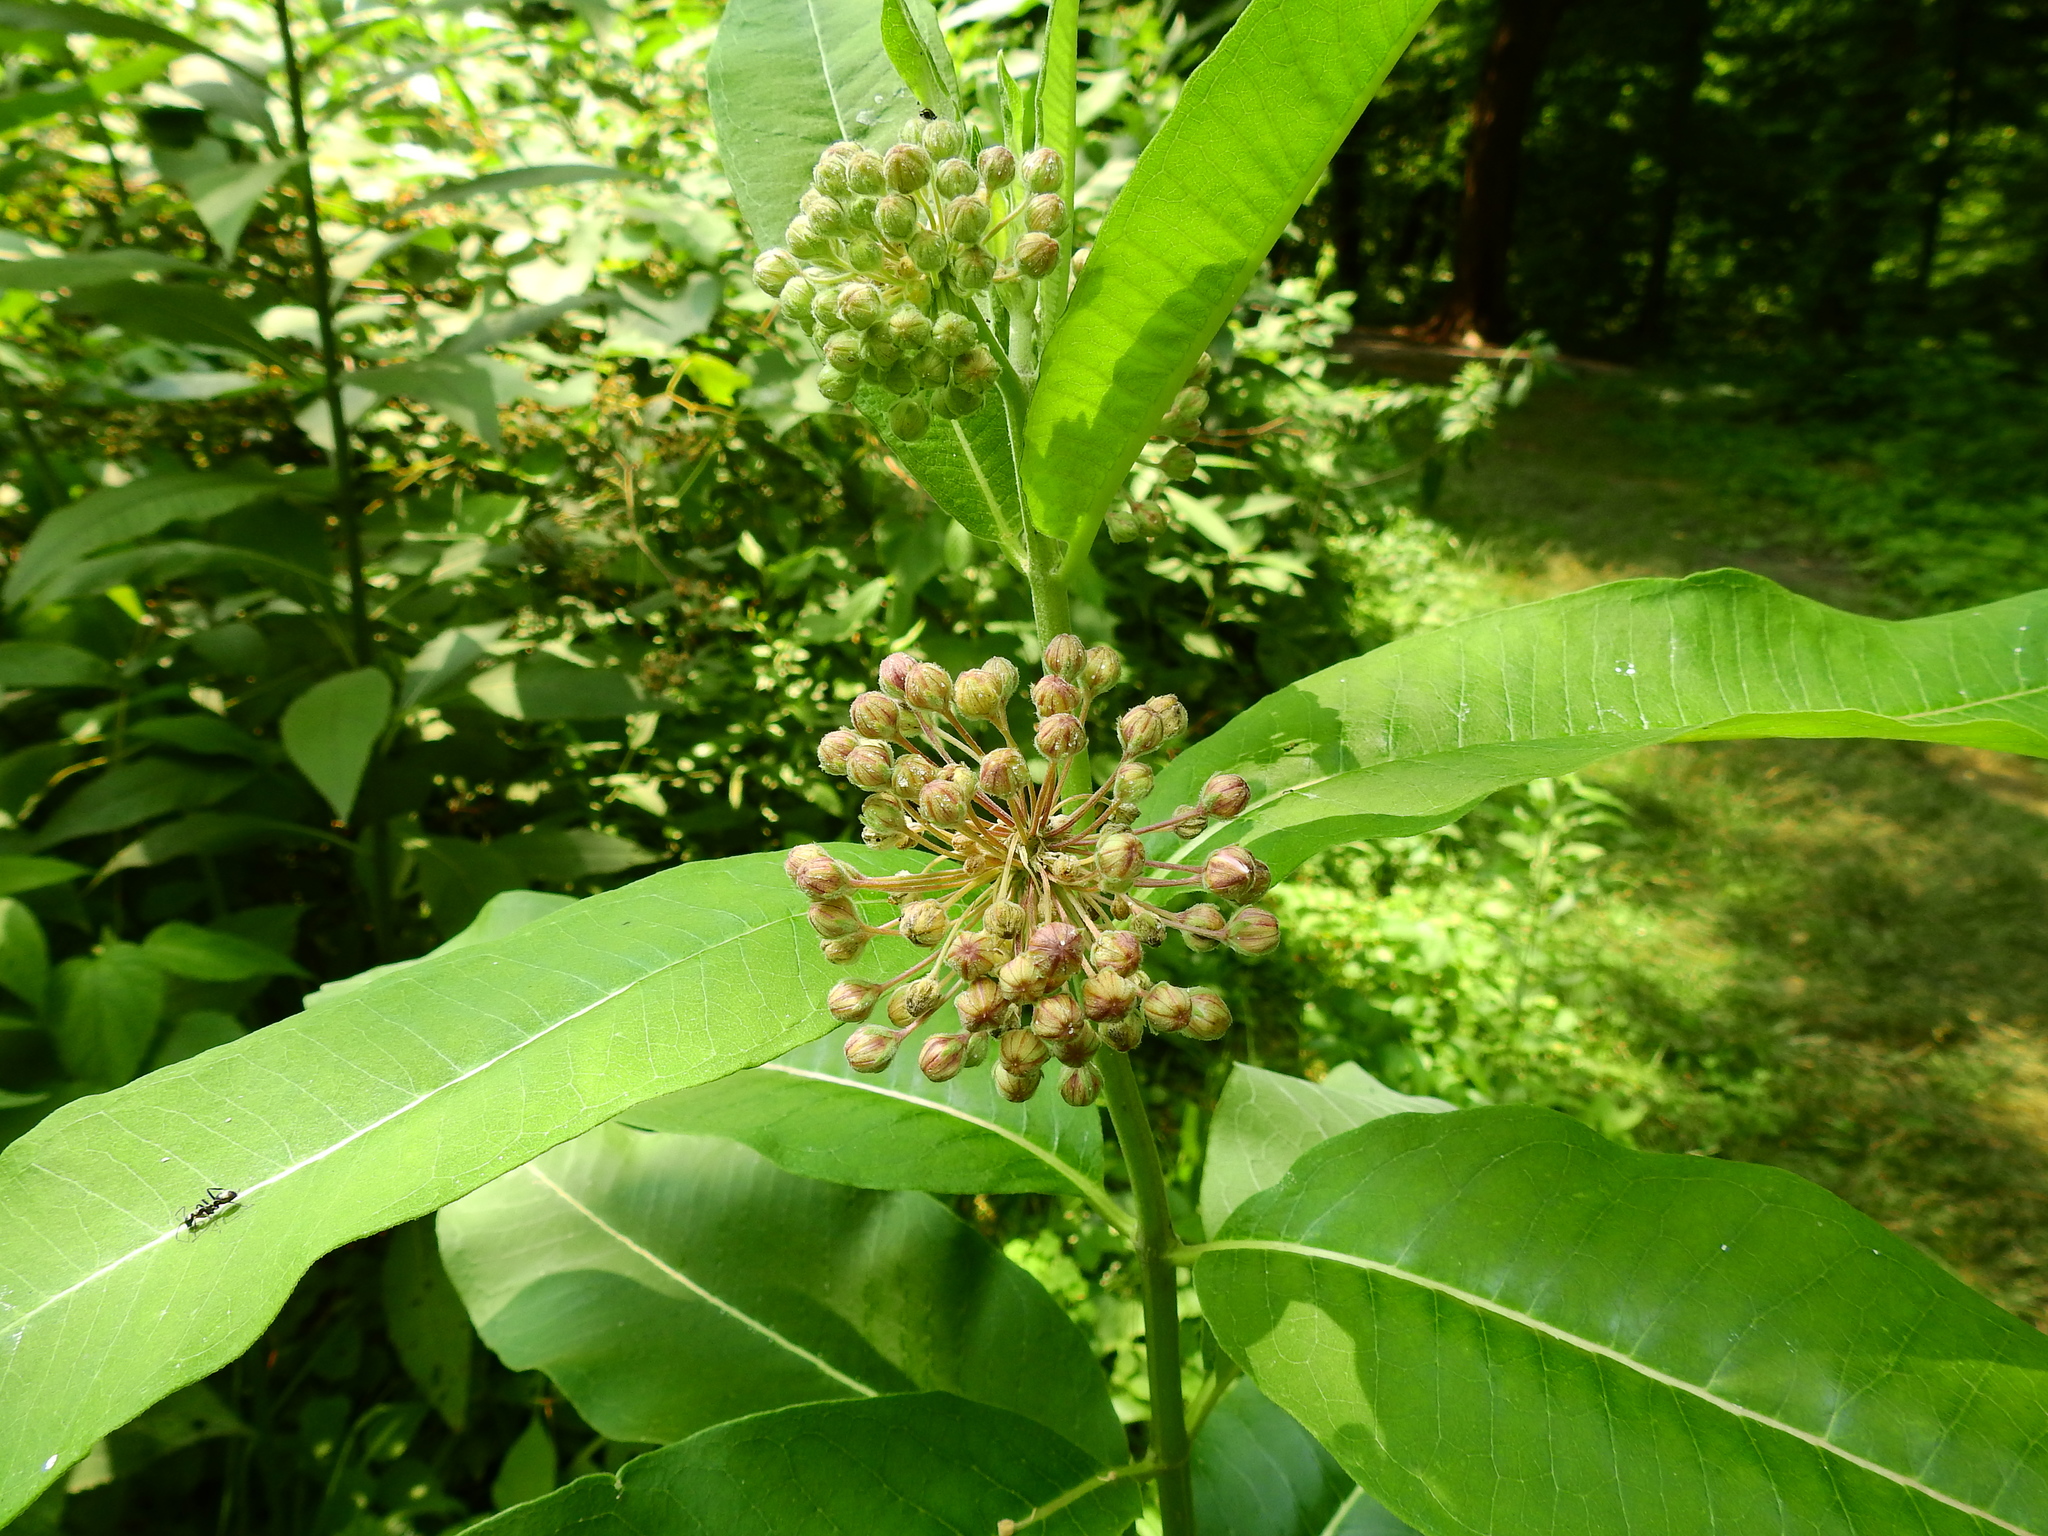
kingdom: Plantae
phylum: Tracheophyta
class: Magnoliopsida
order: Gentianales
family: Apocynaceae
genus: Asclepias
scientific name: Asclepias syriaca
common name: Common milkweed
